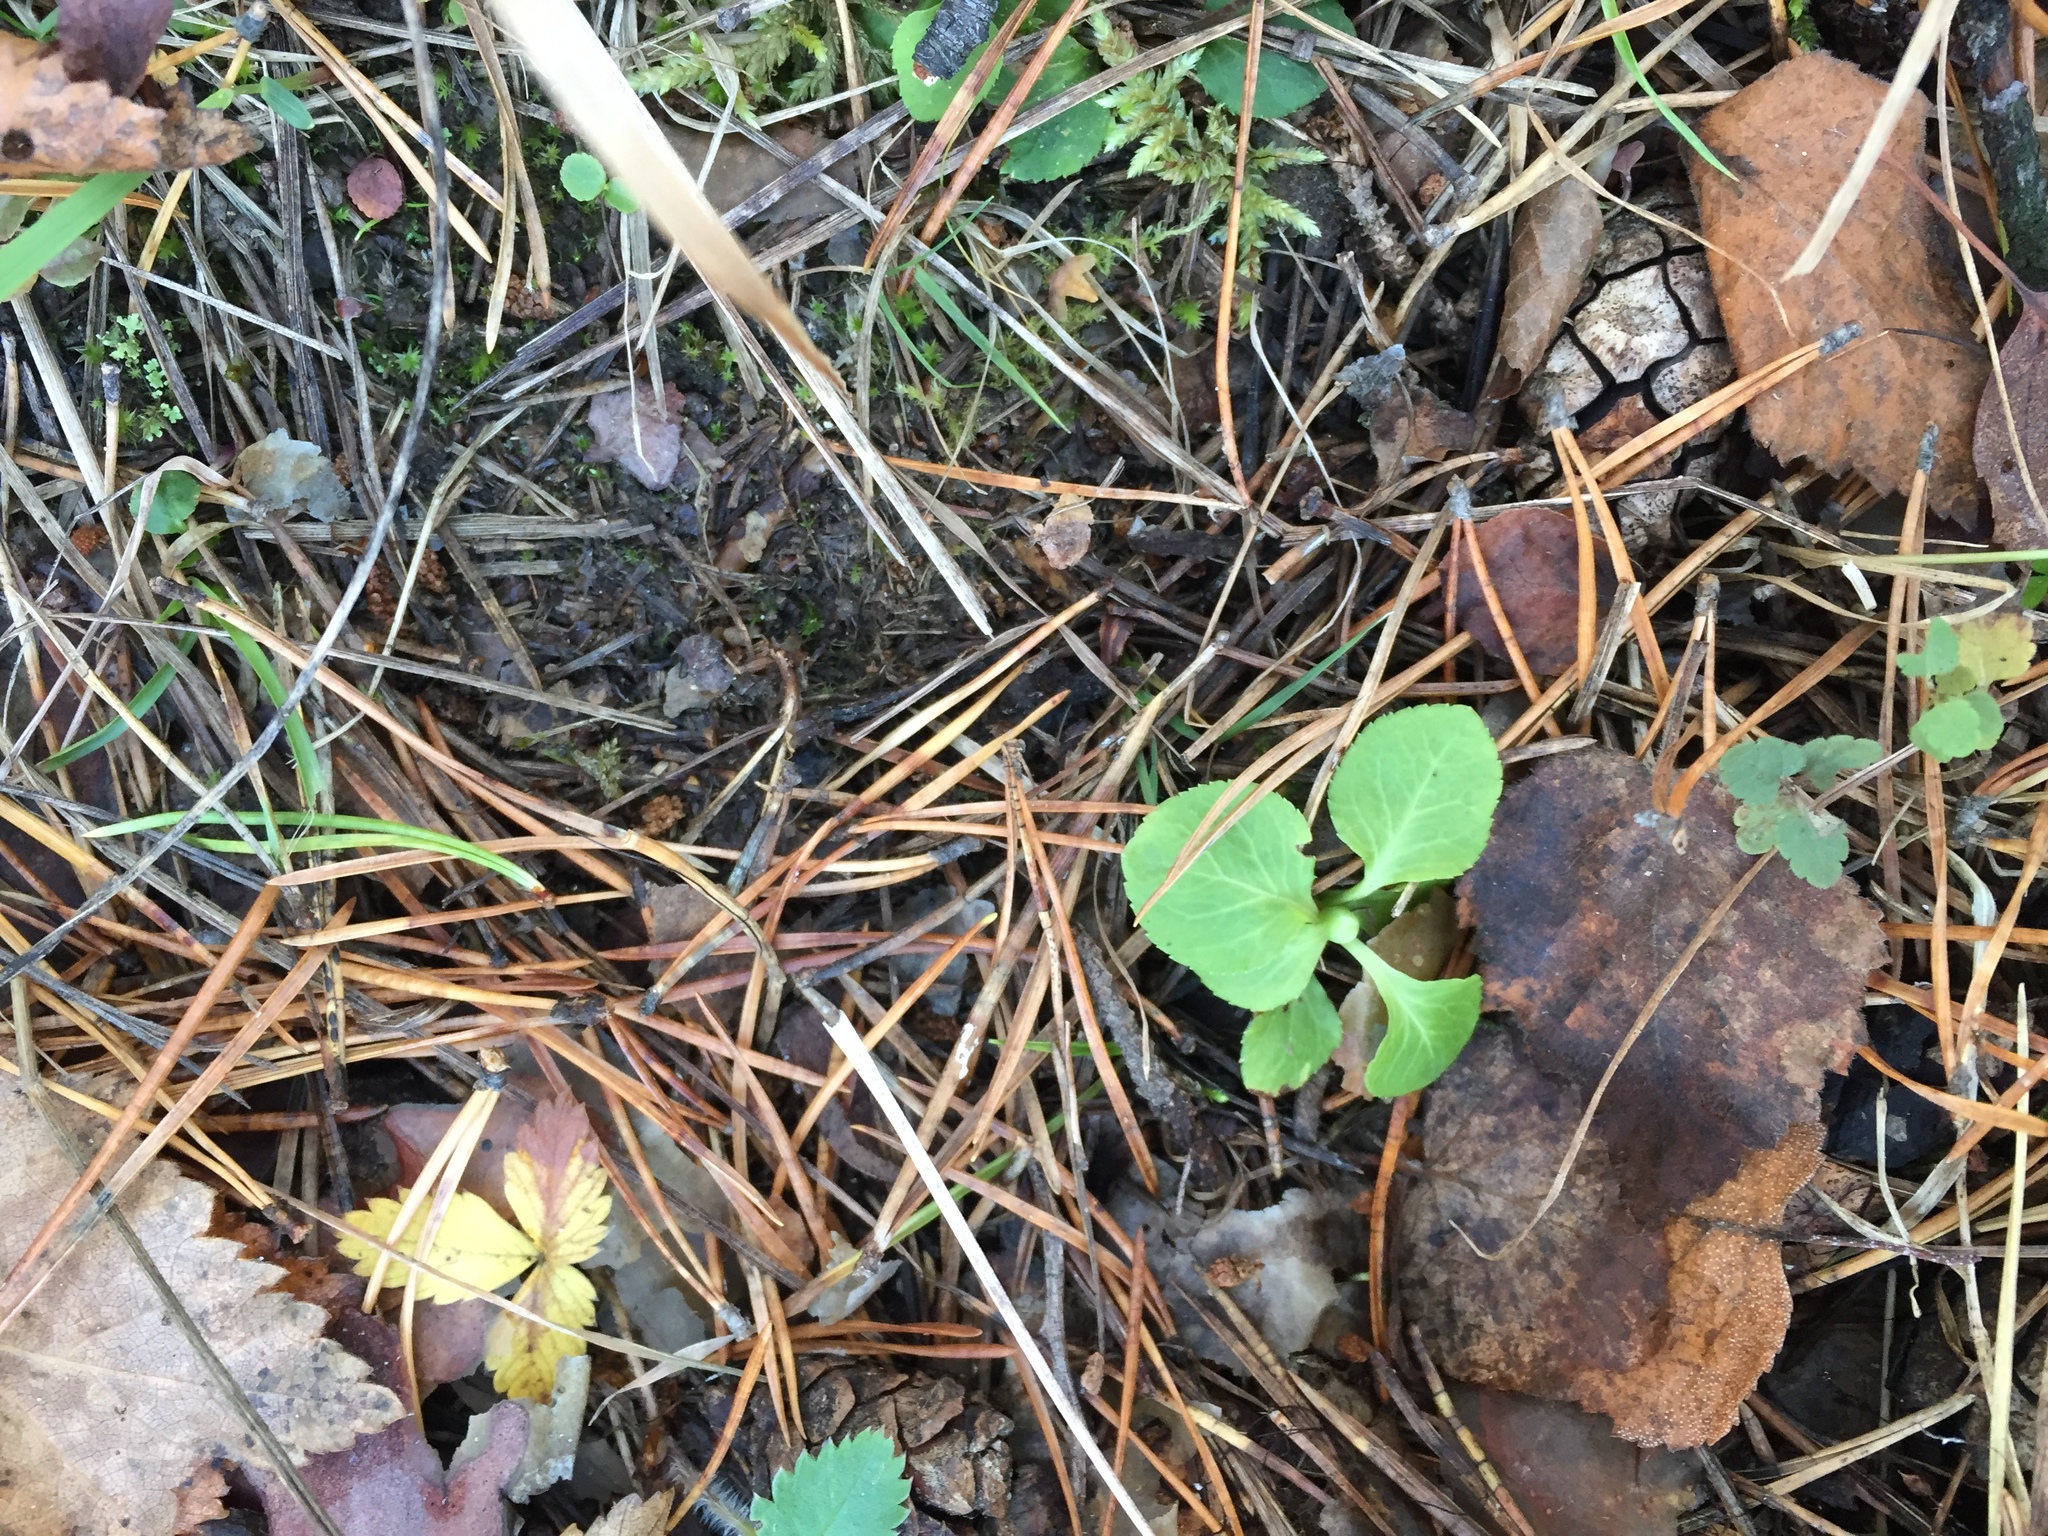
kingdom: Plantae
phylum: Tracheophyta
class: Magnoliopsida
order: Ericales
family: Ericaceae
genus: Moneses
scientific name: Moneses uniflora
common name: One-flowered wintergreen
